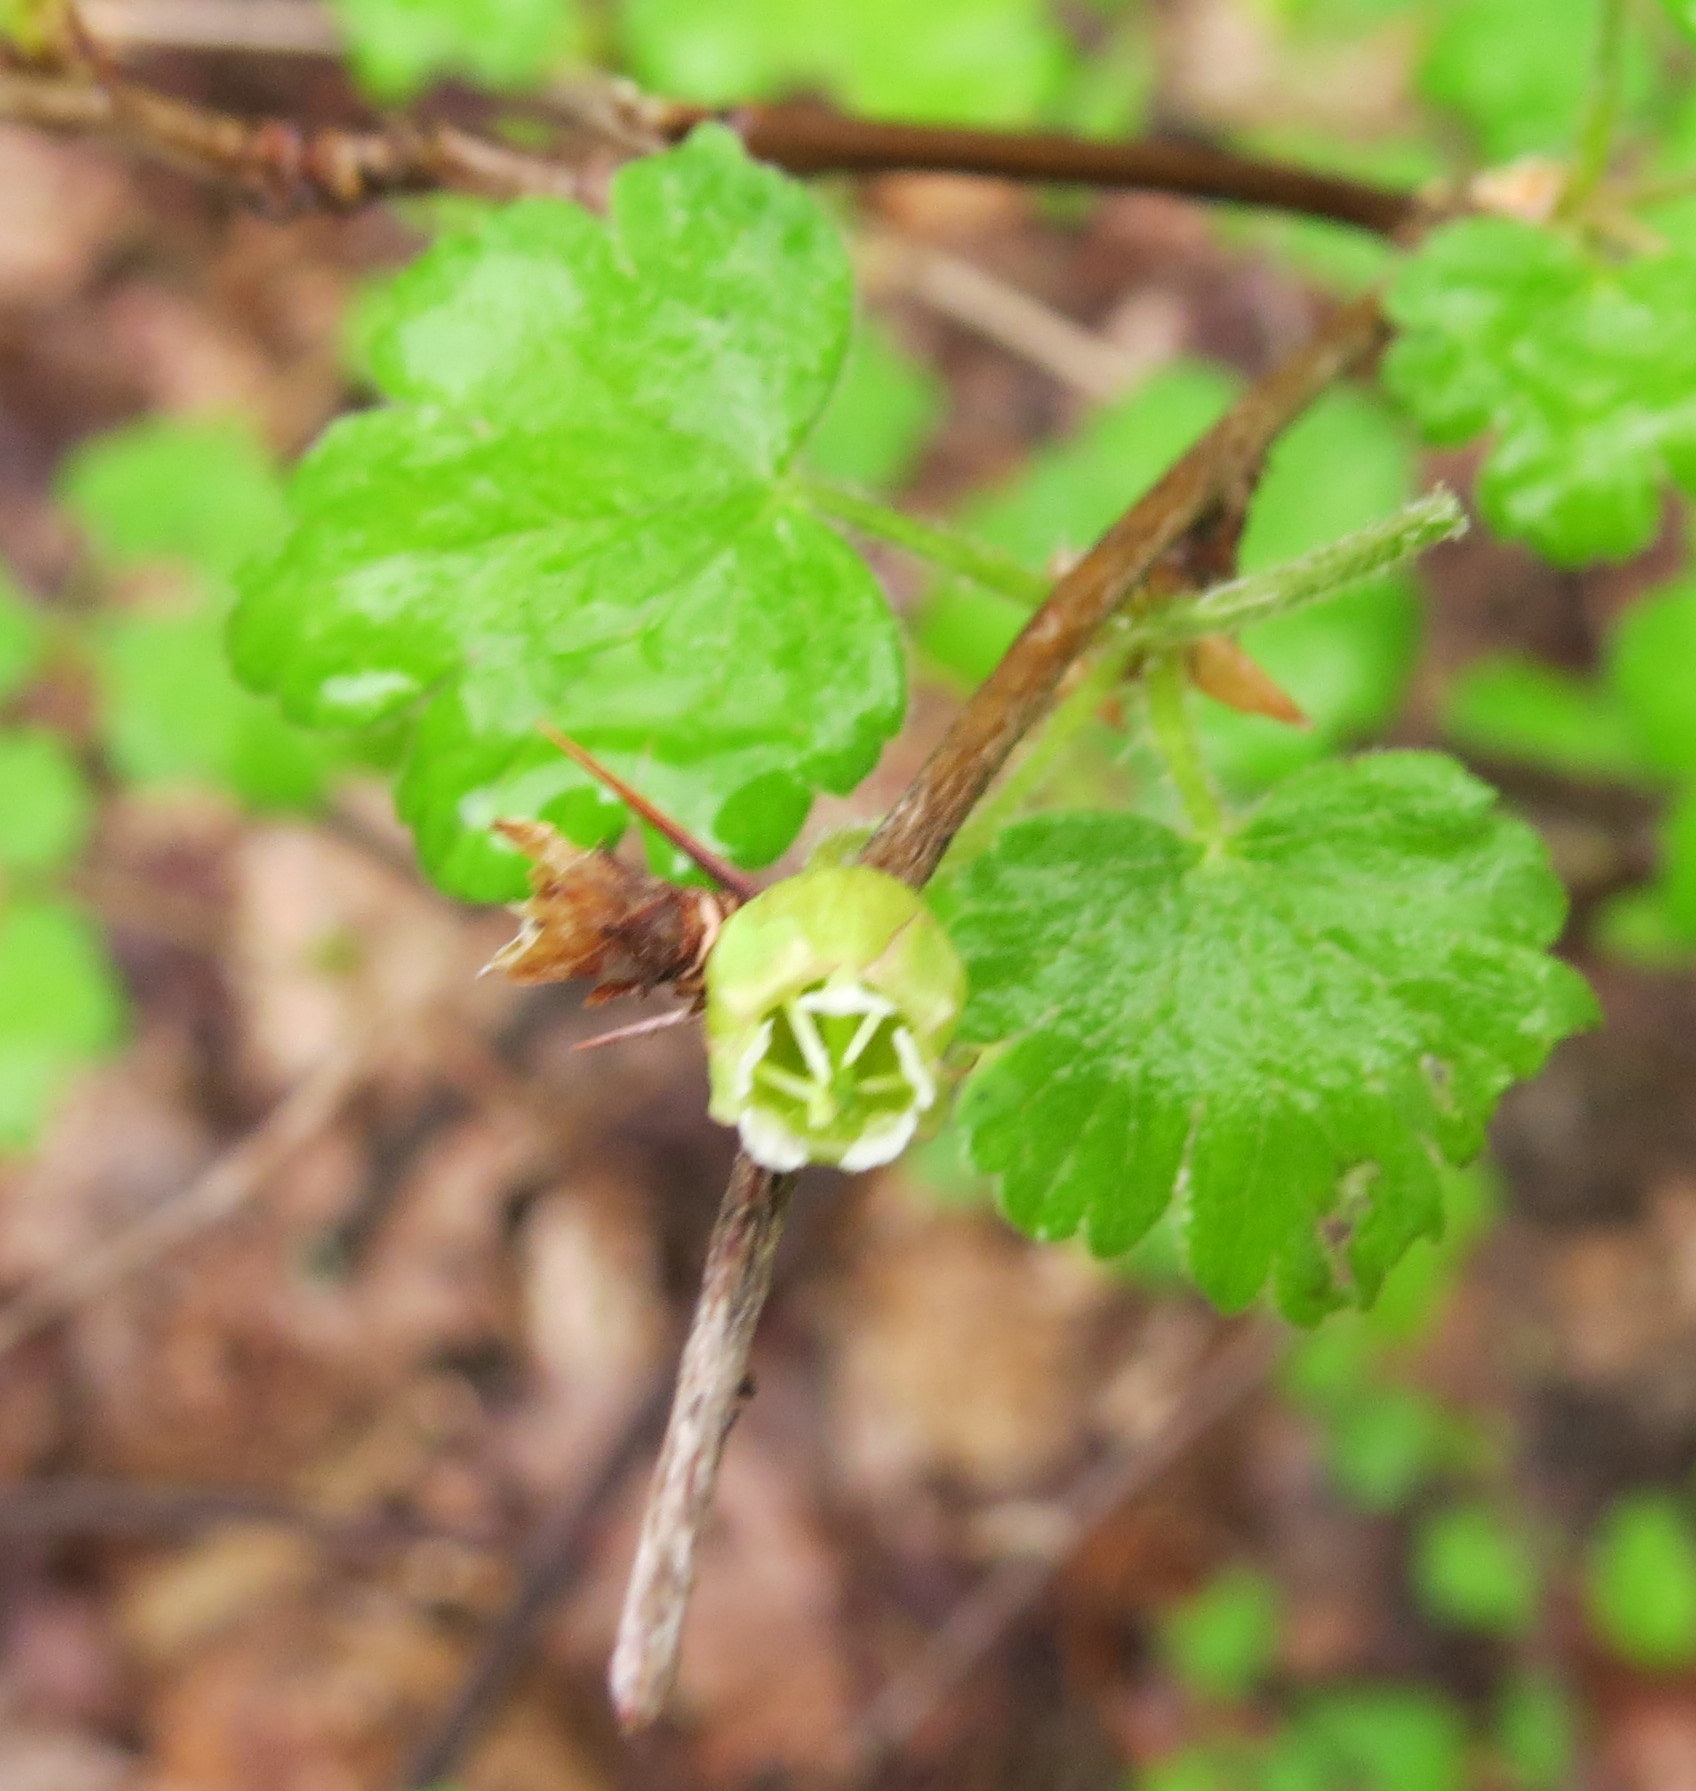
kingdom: Plantae
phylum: Tracheophyta
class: Magnoliopsida
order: Saxifragales
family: Grossulariaceae
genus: Ribes
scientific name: Ribes cynosbati
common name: American gooseberry
